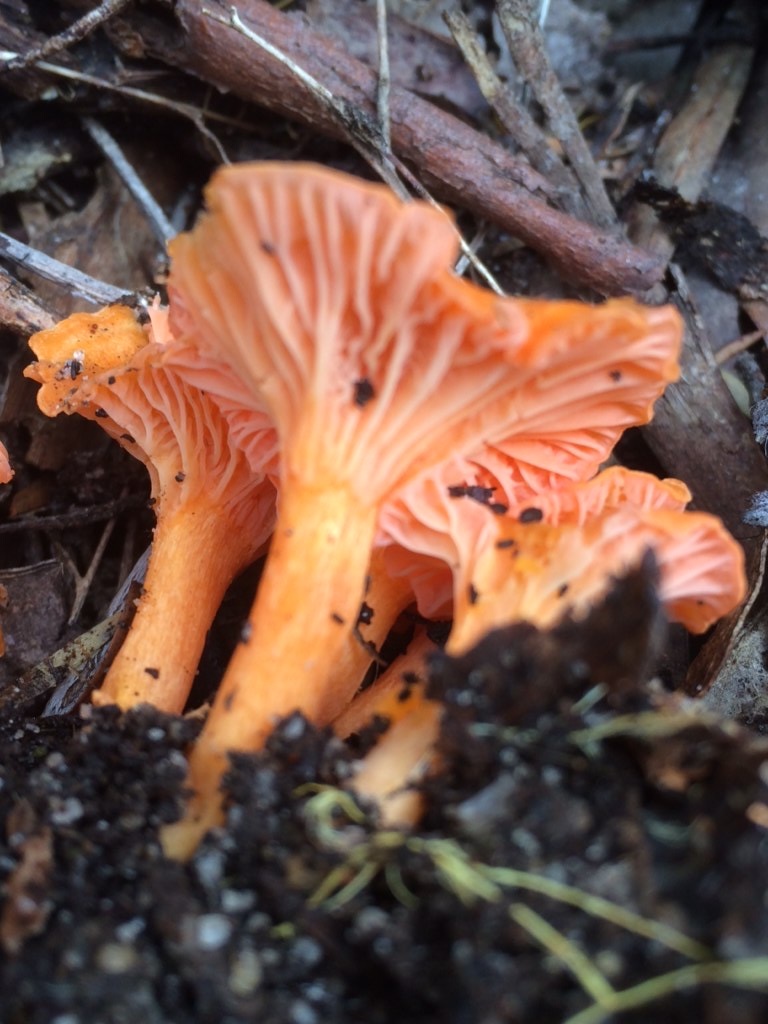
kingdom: Fungi
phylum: Basidiomycota
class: Agaricomycetes
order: Cantharellales
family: Hydnaceae
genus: Cantharellus
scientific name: Cantharellus
